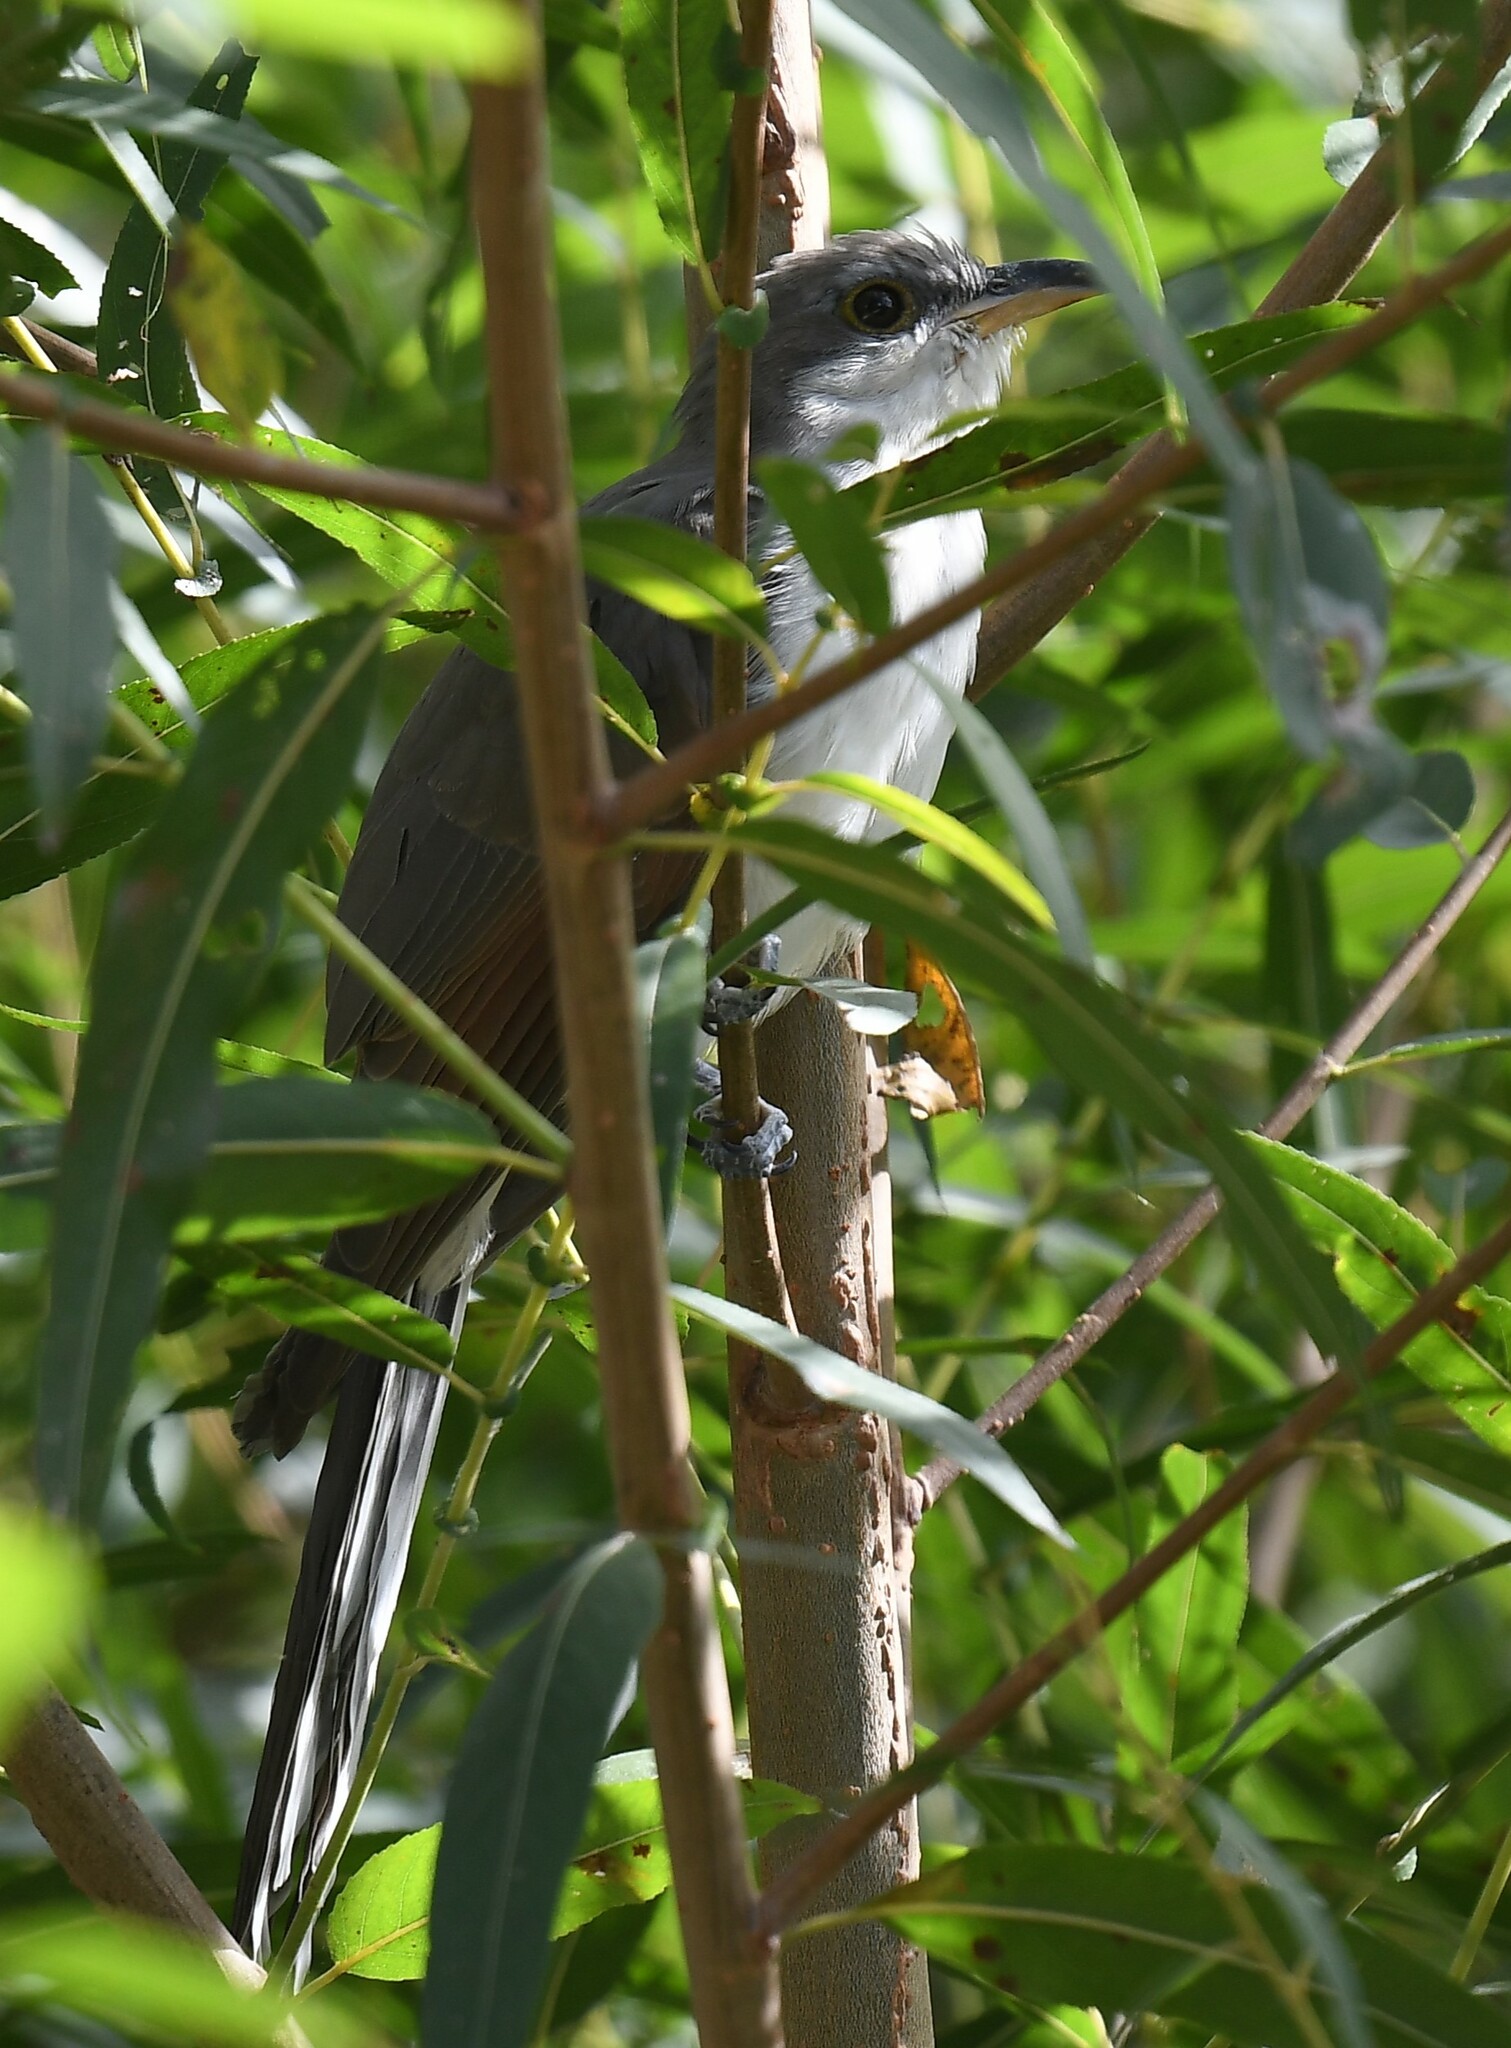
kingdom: Animalia
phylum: Chordata
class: Aves
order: Cuculiformes
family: Cuculidae
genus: Coccyzus
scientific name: Coccyzus americanus
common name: Yellow-billed cuckoo
